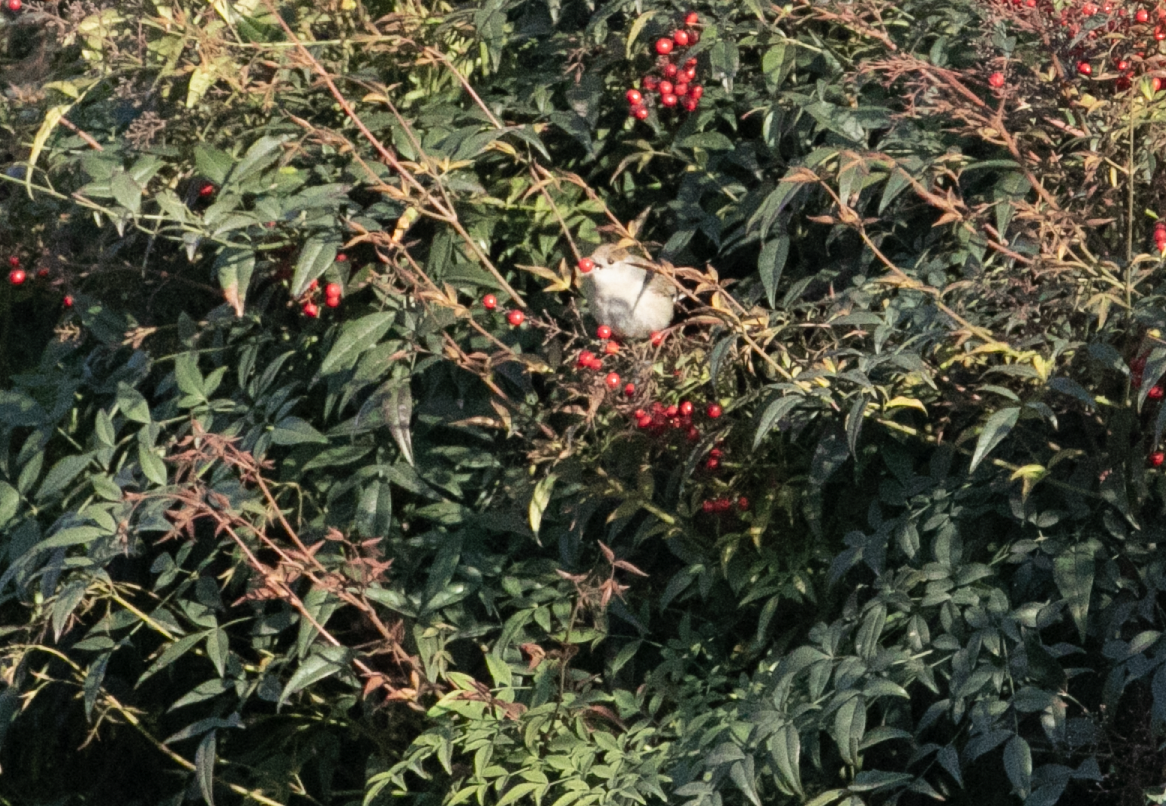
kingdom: Animalia
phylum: Chordata
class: Aves
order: Passeriformes
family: Sylviidae
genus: Sylvia
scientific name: Sylvia atricapilla
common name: Eurasian blackcap
